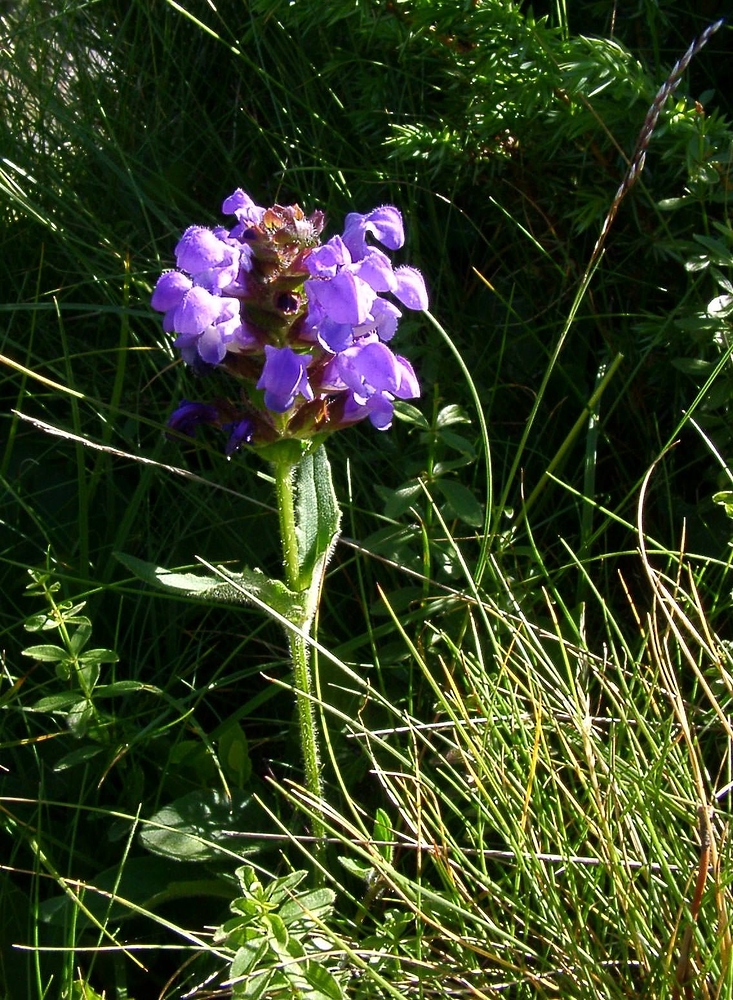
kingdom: Plantae
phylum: Tracheophyta
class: Magnoliopsida
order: Lamiales
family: Lamiaceae
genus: Prunella
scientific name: Prunella grandiflora
